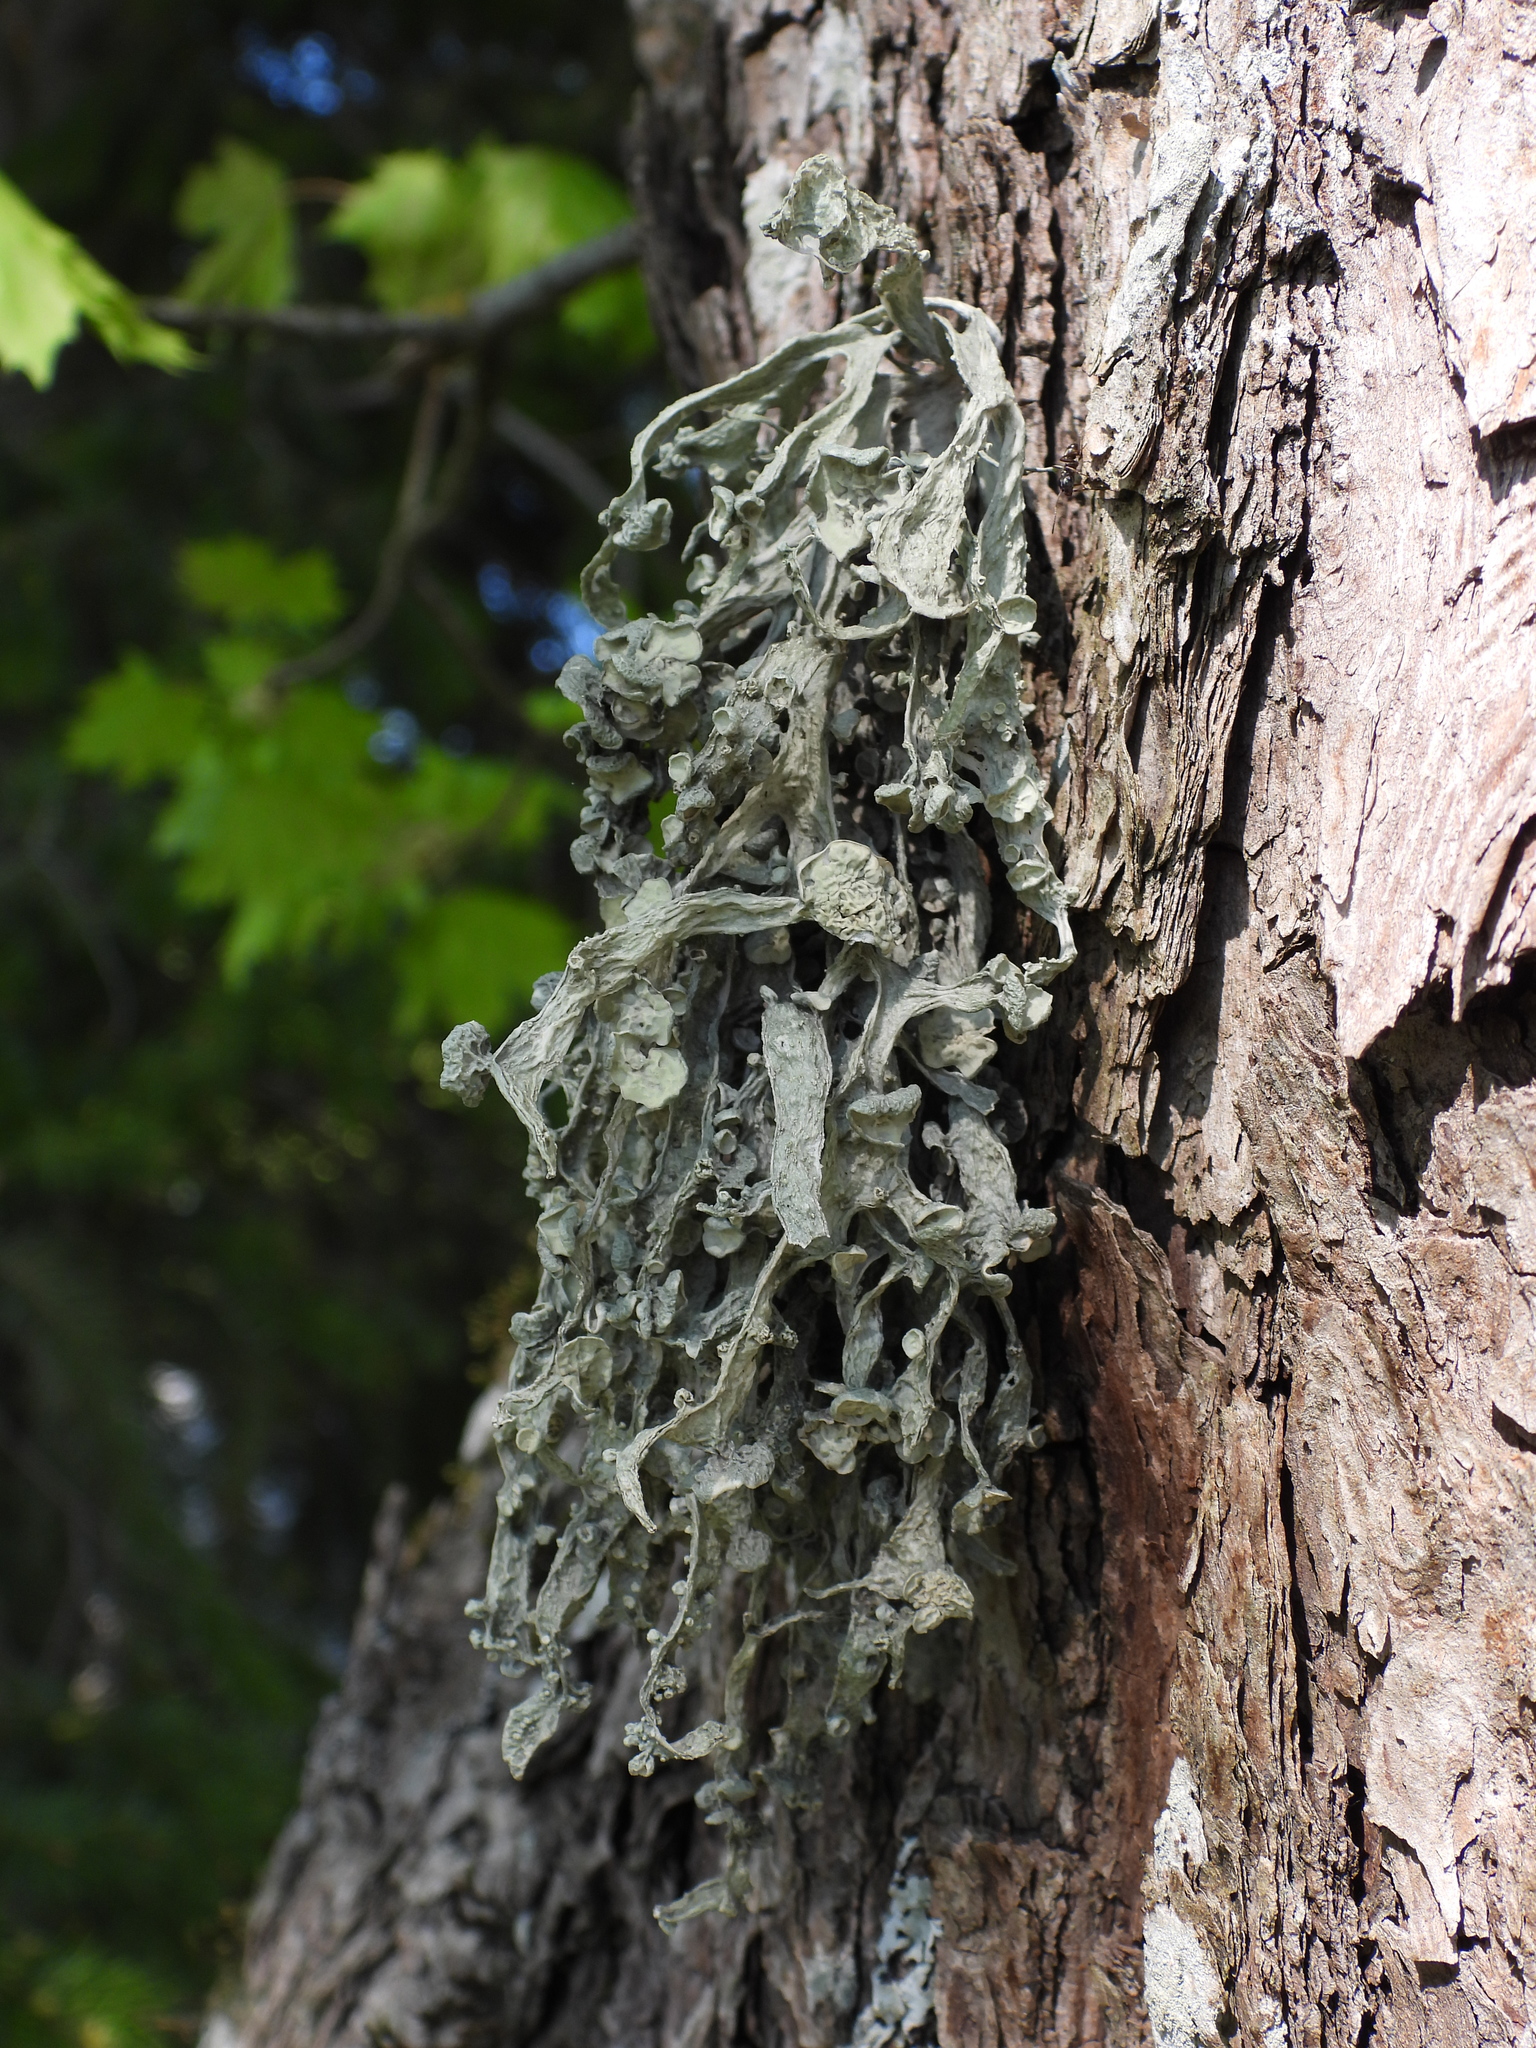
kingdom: Fungi
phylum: Ascomycota
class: Lecanoromycetes
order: Lecanorales
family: Ramalinaceae
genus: Ramalina
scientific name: Ramalina fraxinea
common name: Cartilage lichen
